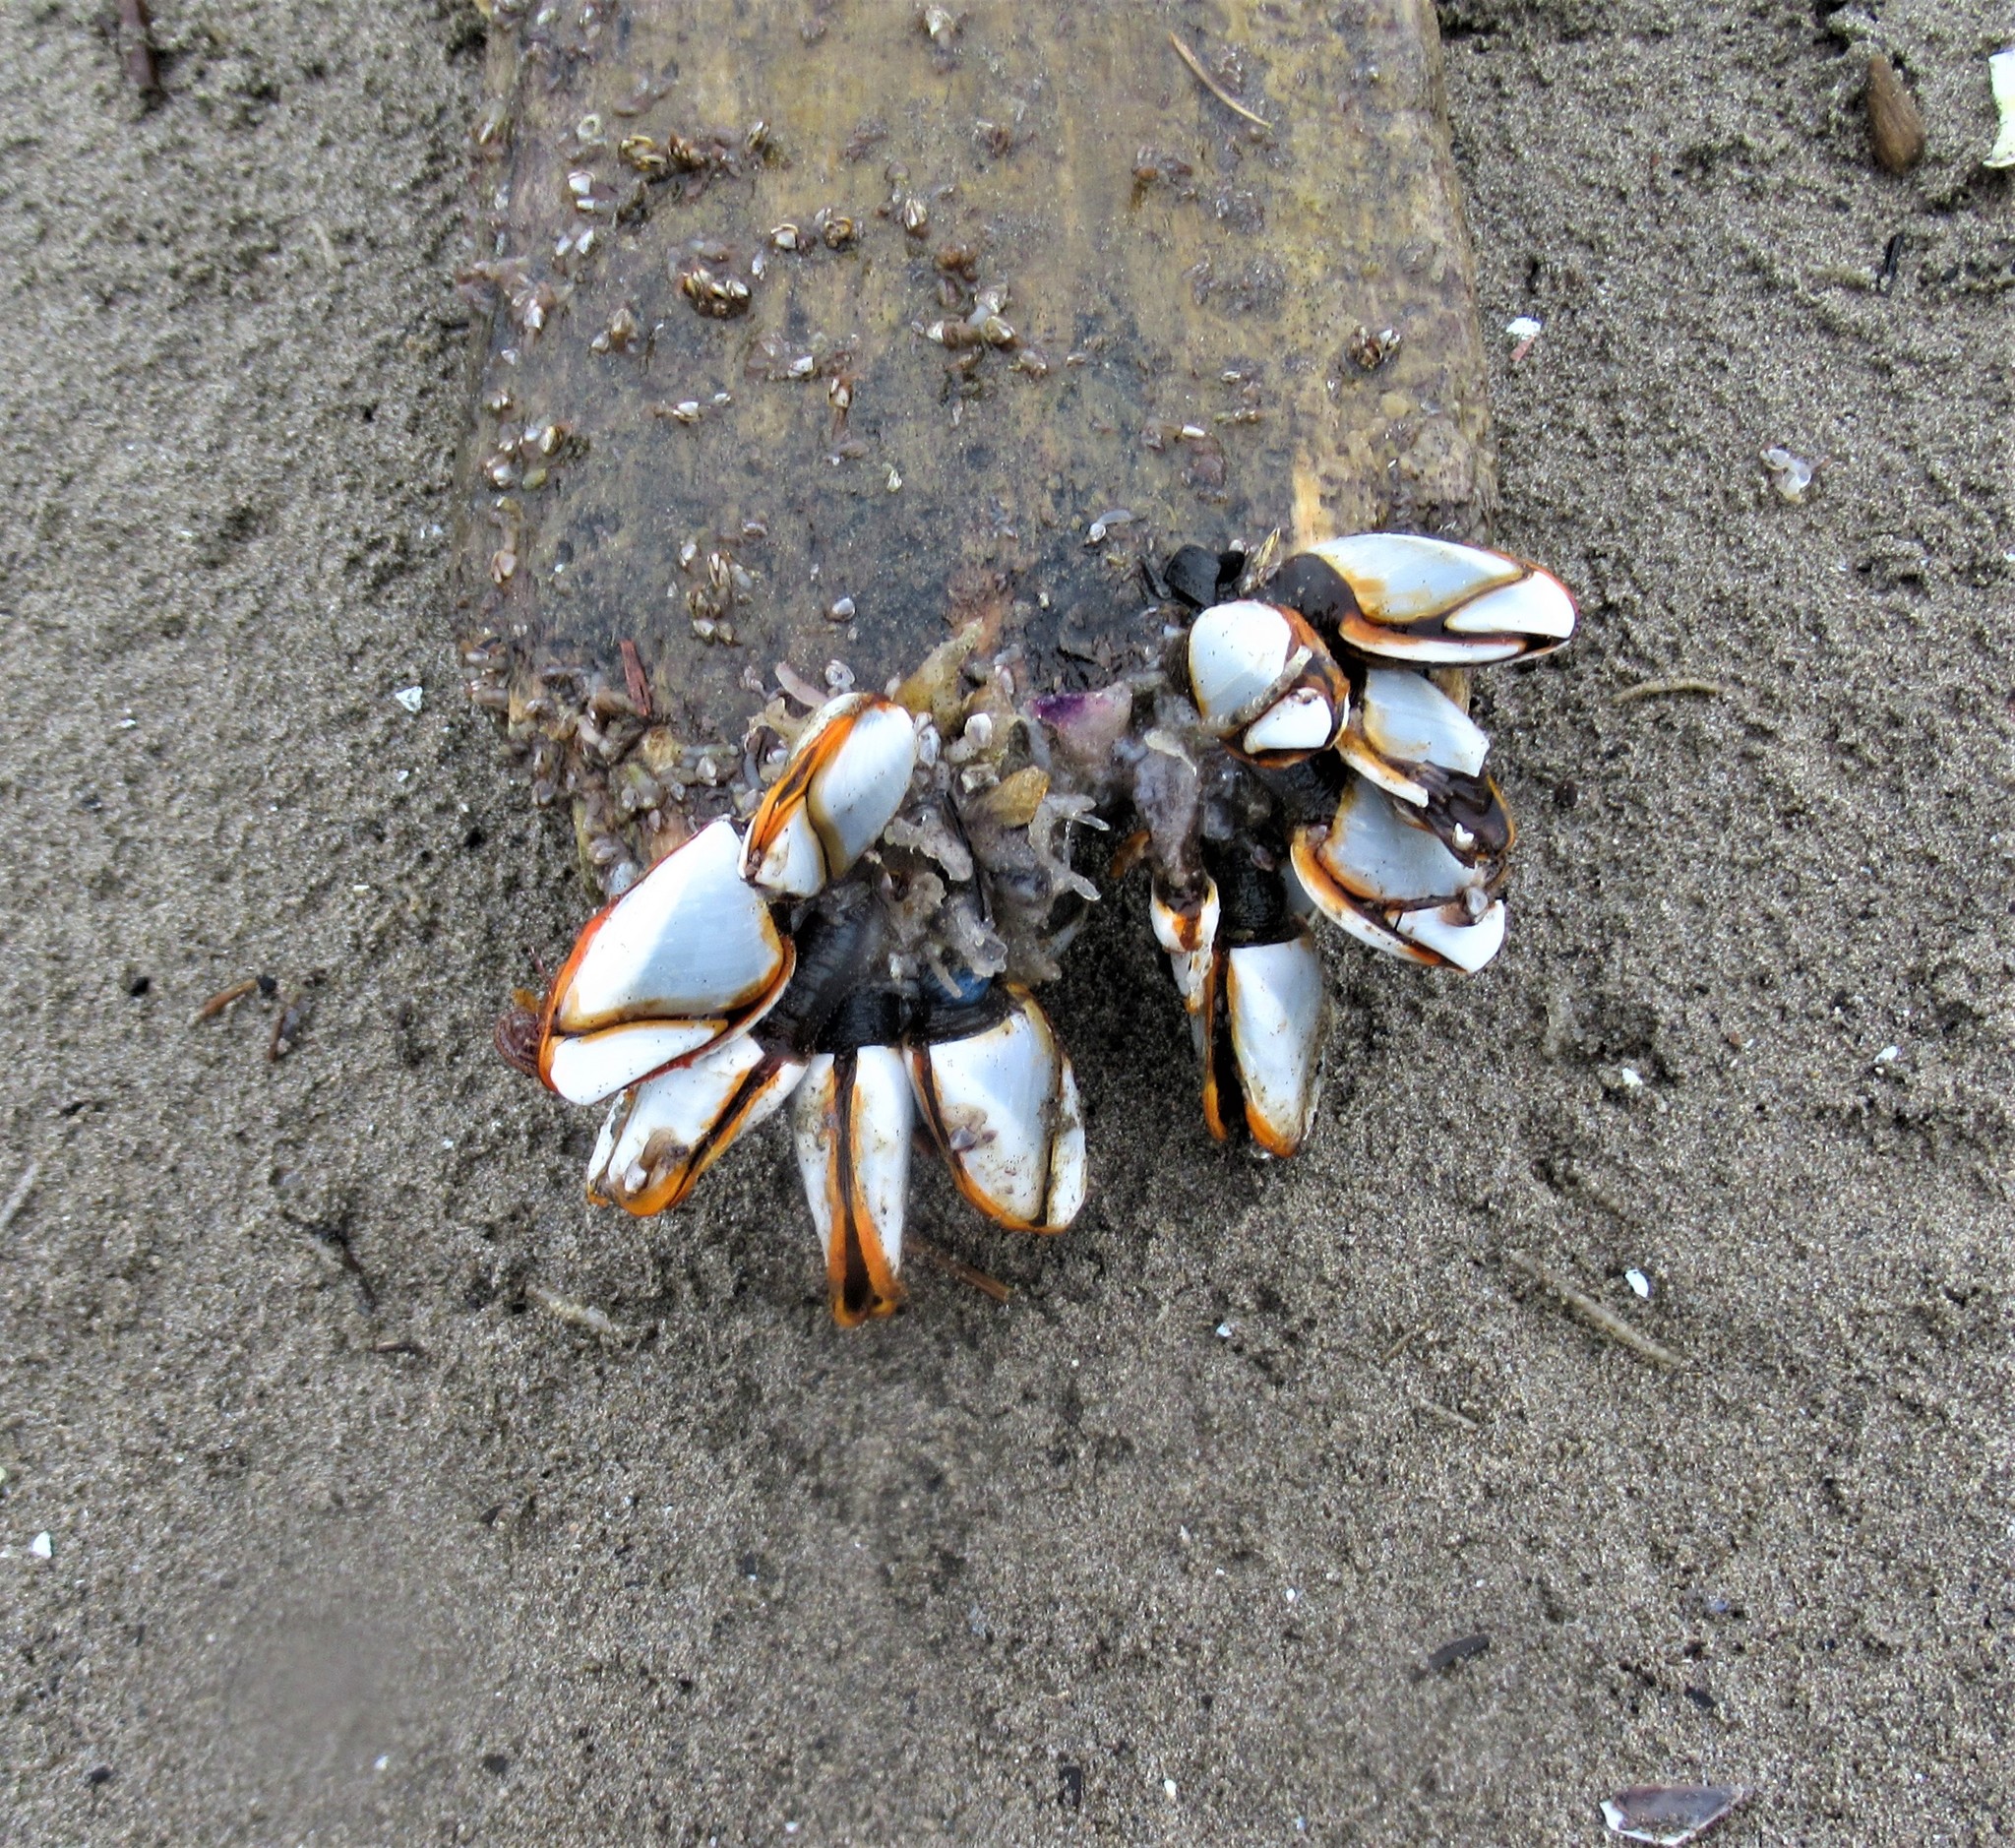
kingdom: Animalia
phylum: Arthropoda
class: Maxillopoda
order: Pedunculata
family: Lepadidae
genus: Lepas
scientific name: Lepas anatifera
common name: Common goose barnacle
